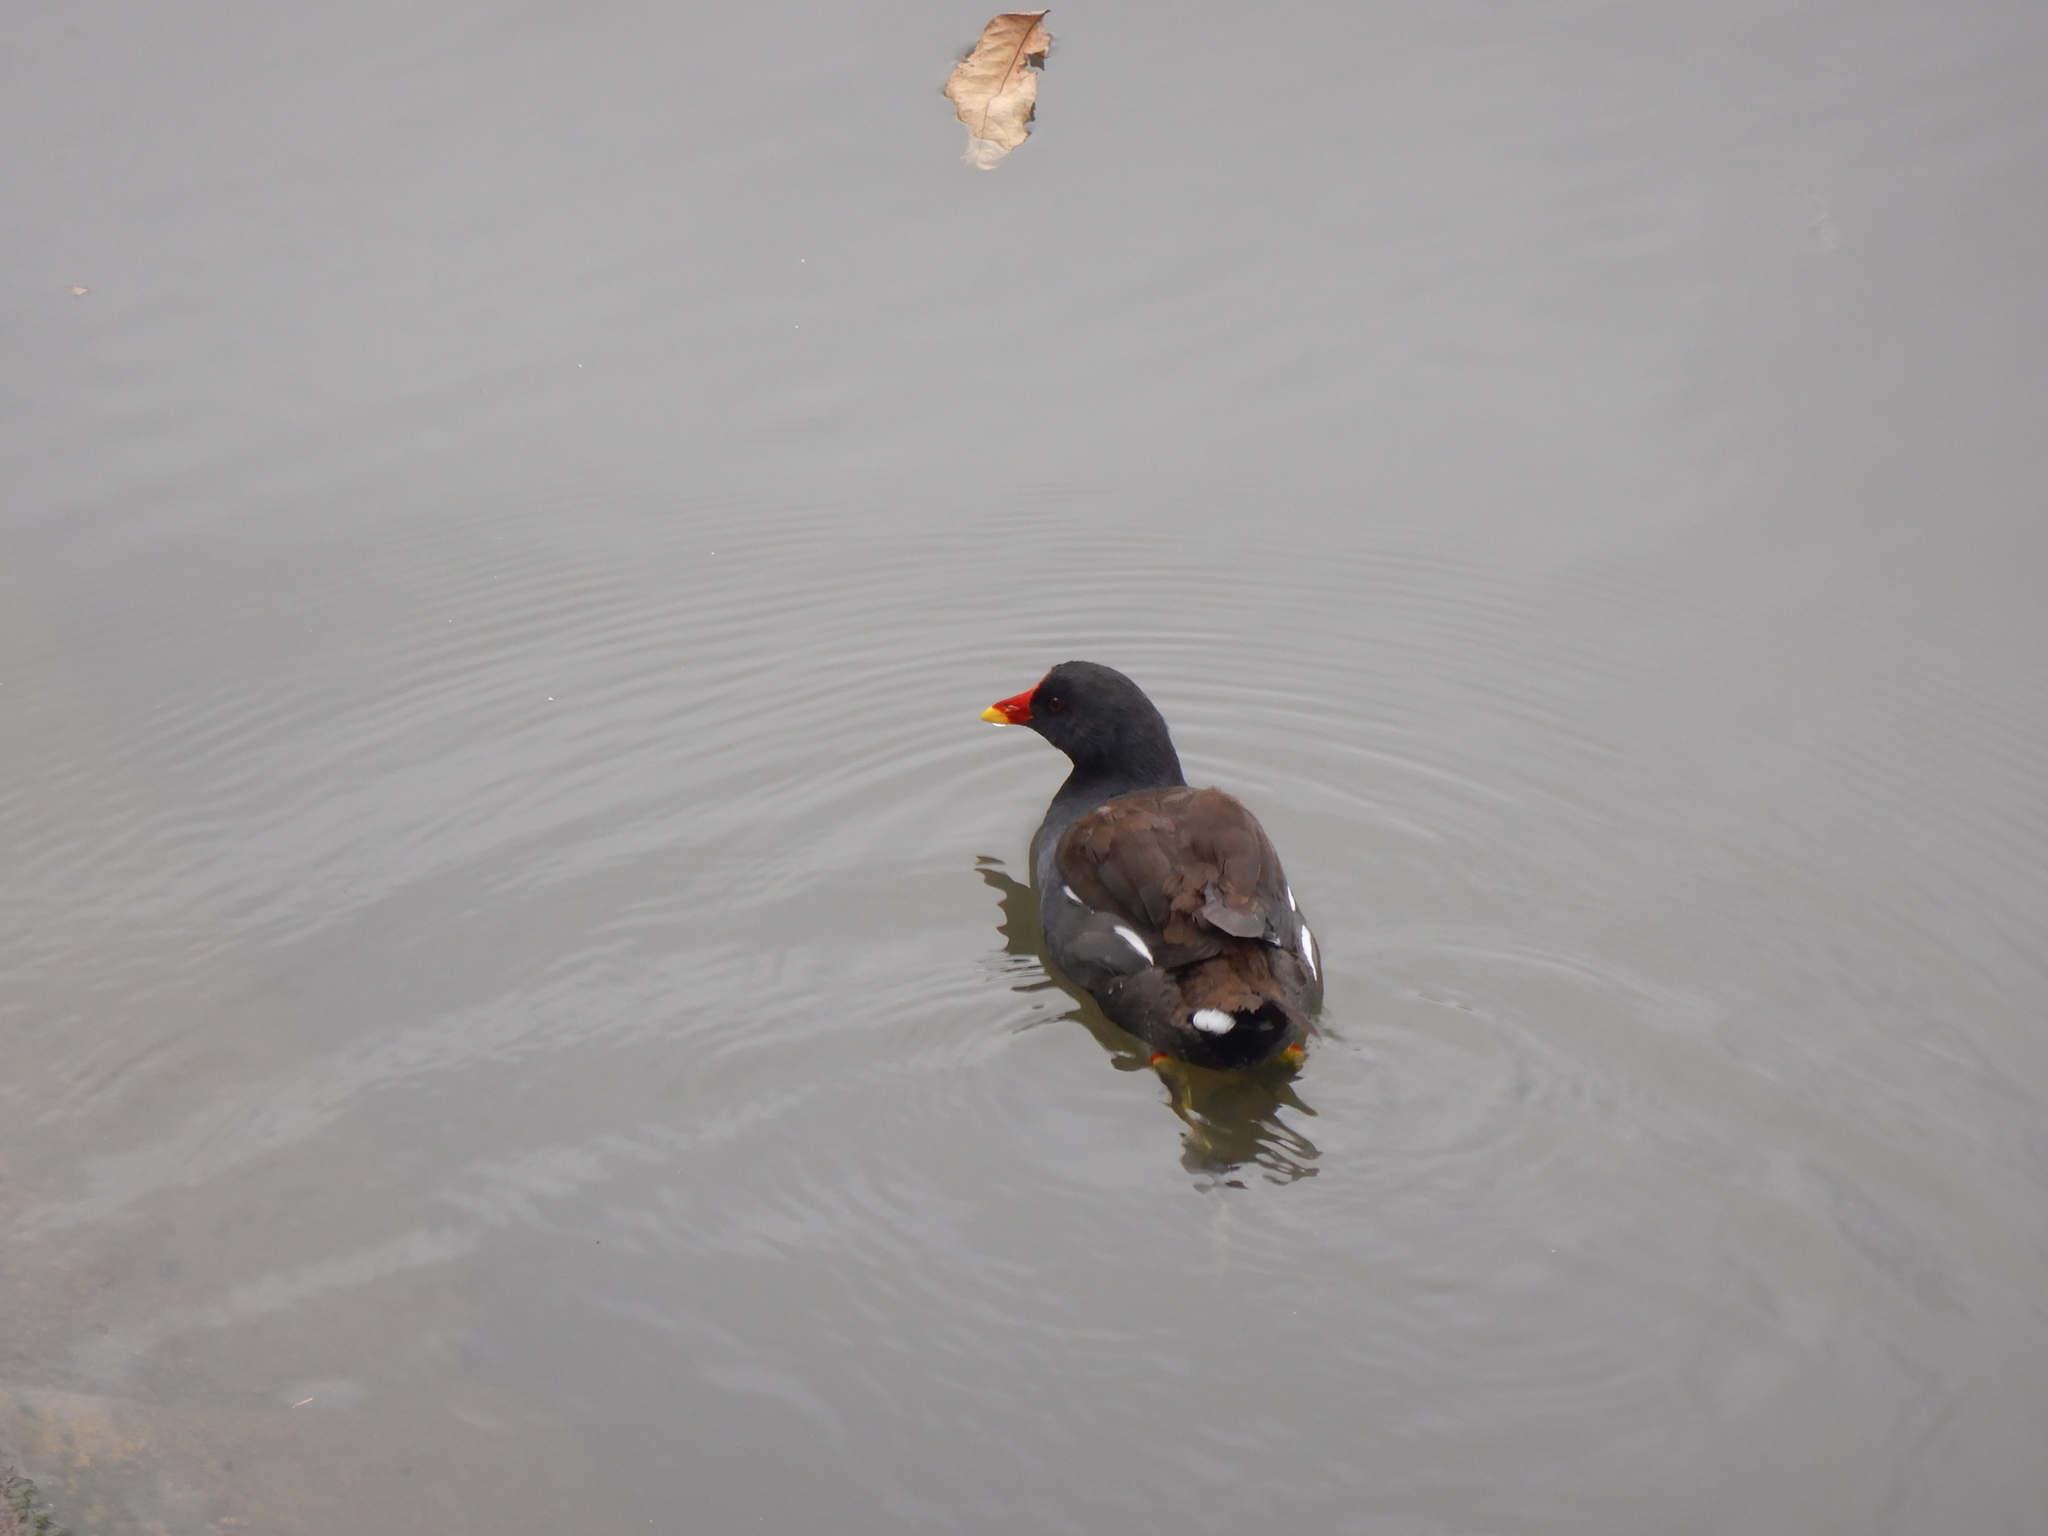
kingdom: Animalia
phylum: Chordata
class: Aves
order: Gruiformes
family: Rallidae
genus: Gallinula
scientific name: Gallinula chloropus
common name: Common moorhen
